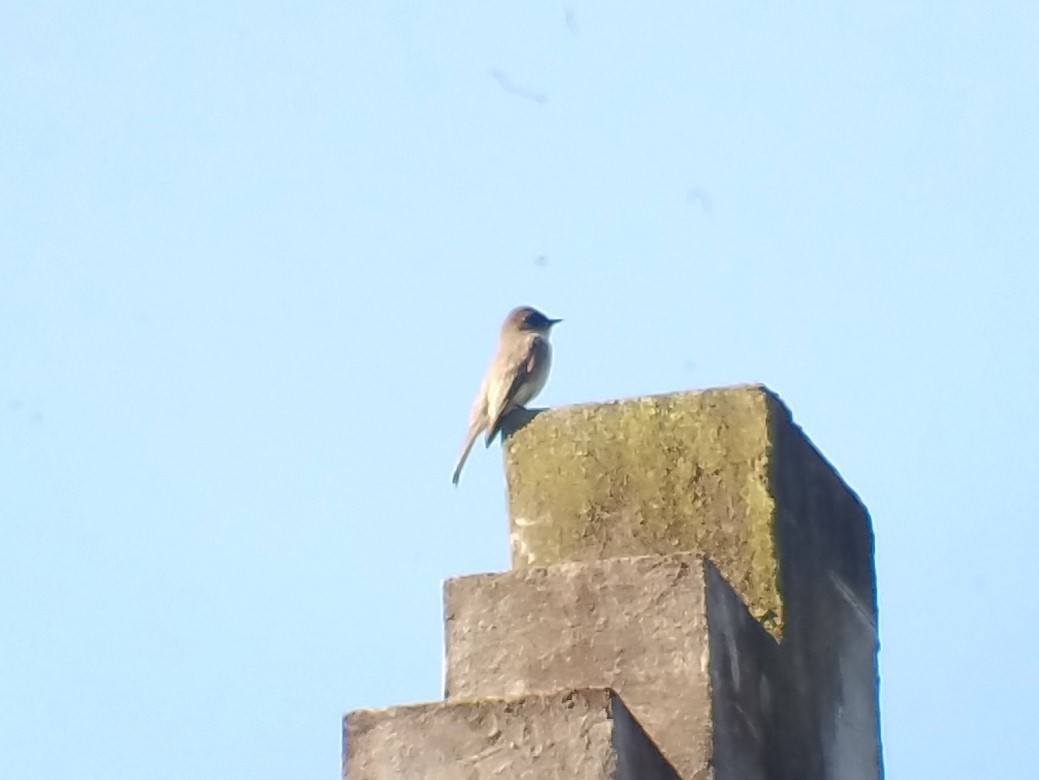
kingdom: Animalia
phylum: Chordata
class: Aves
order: Passeriformes
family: Tyrannidae
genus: Sayornis
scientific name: Sayornis phoebe
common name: Eastern phoebe
